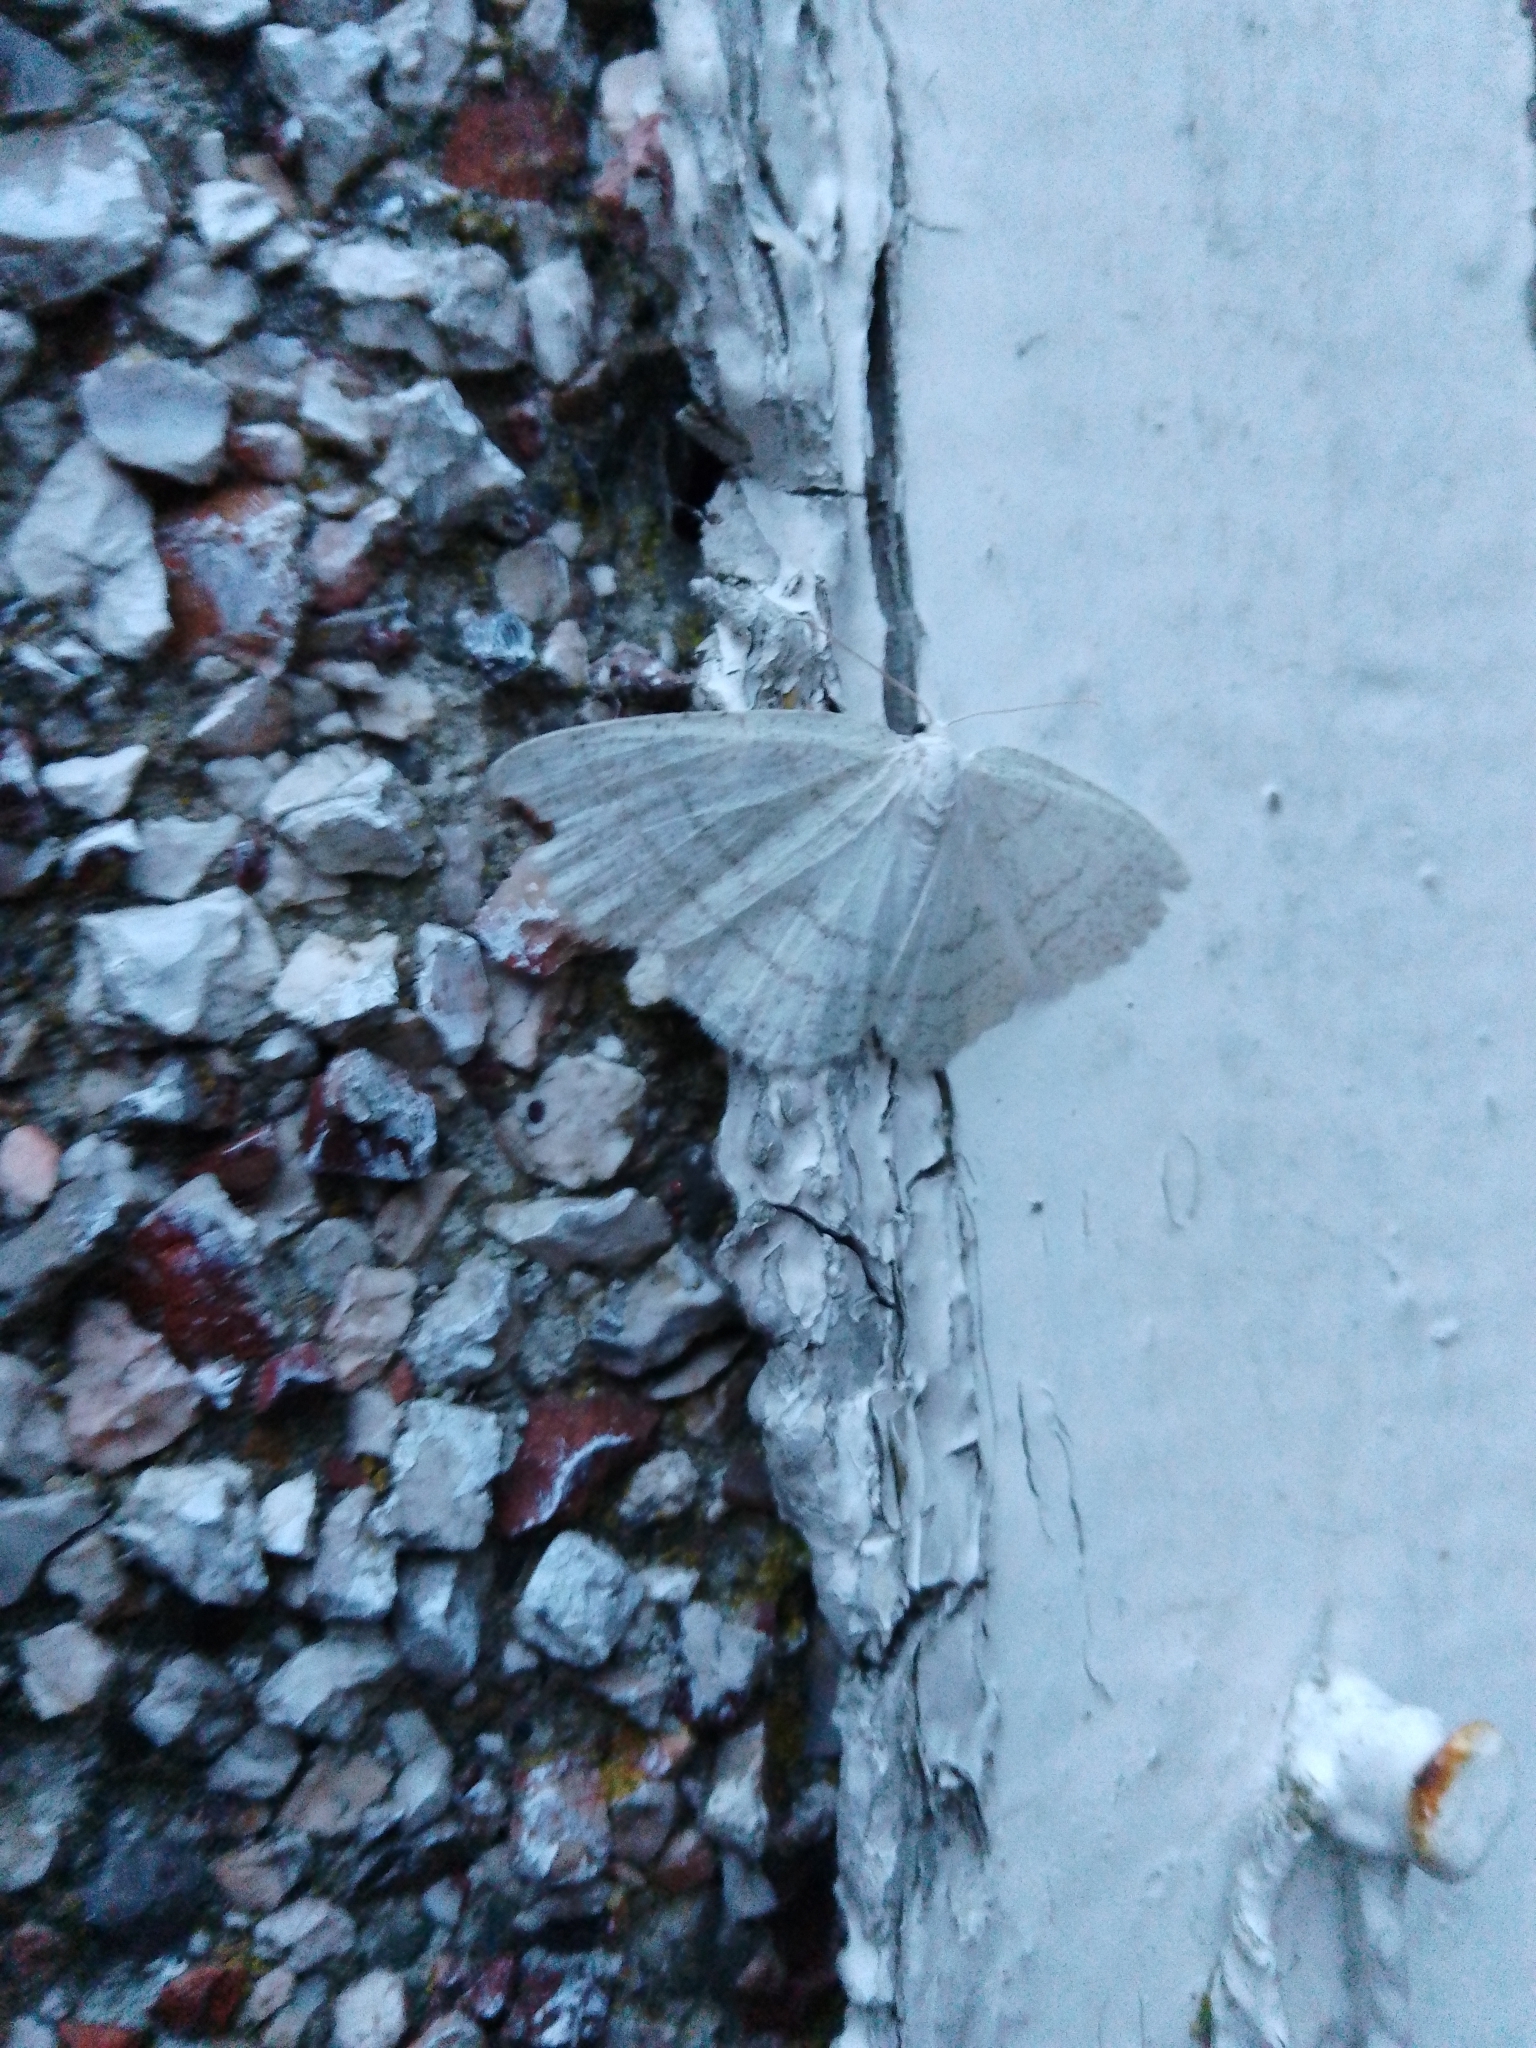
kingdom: Animalia
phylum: Arthropoda
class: Insecta
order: Lepidoptera
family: Geometridae
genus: Cabera
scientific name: Cabera pusaria
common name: Common white wave
